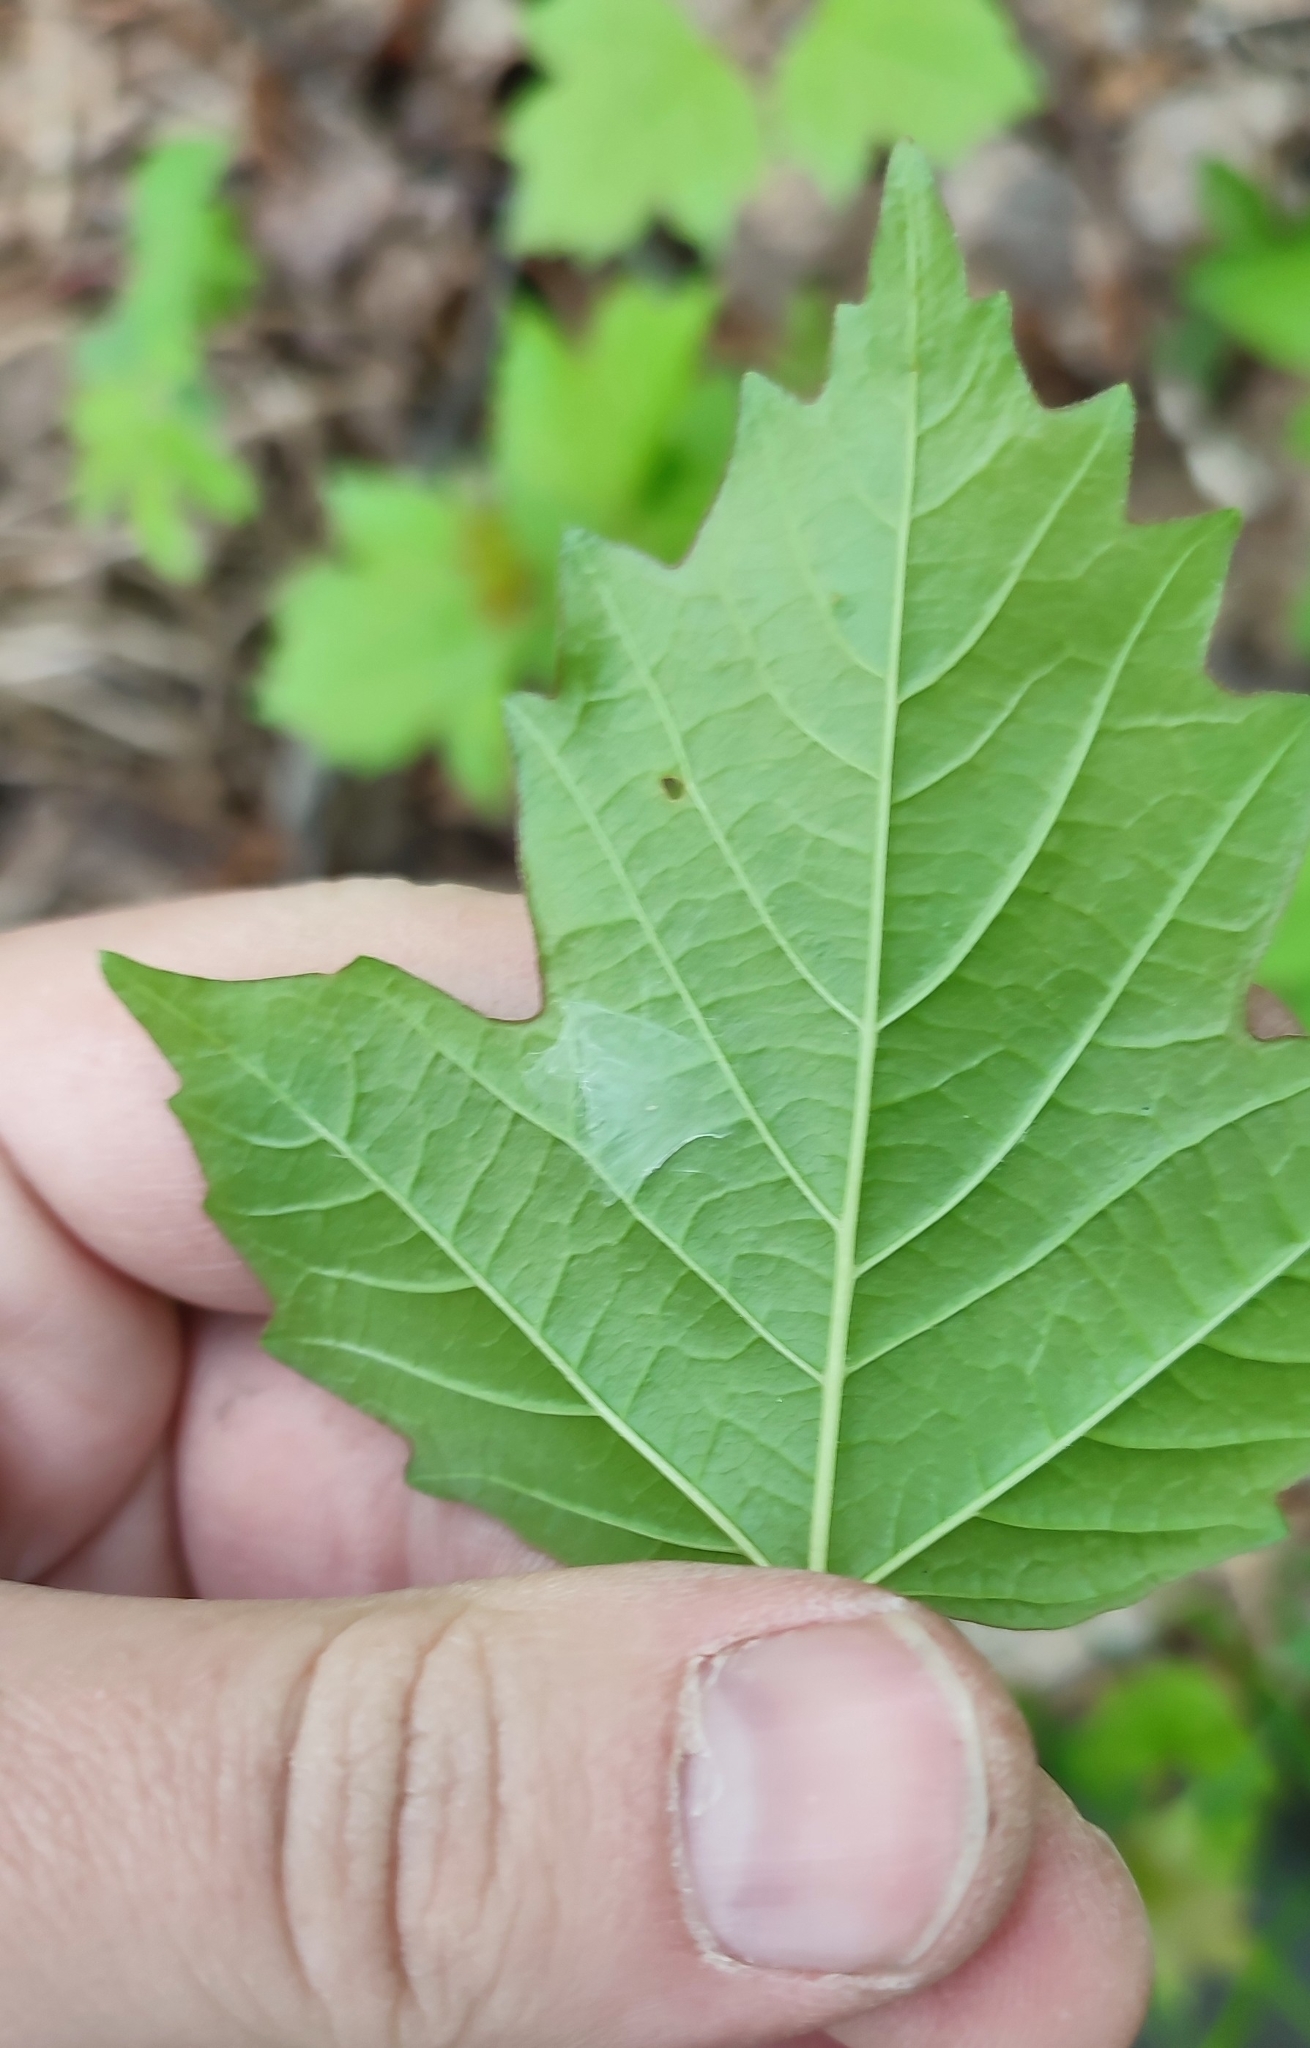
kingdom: Plantae
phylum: Tracheophyta
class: Magnoliopsida
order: Dipsacales
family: Viburnaceae
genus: Viburnum
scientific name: Viburnum opulus
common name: Guelder-rose
